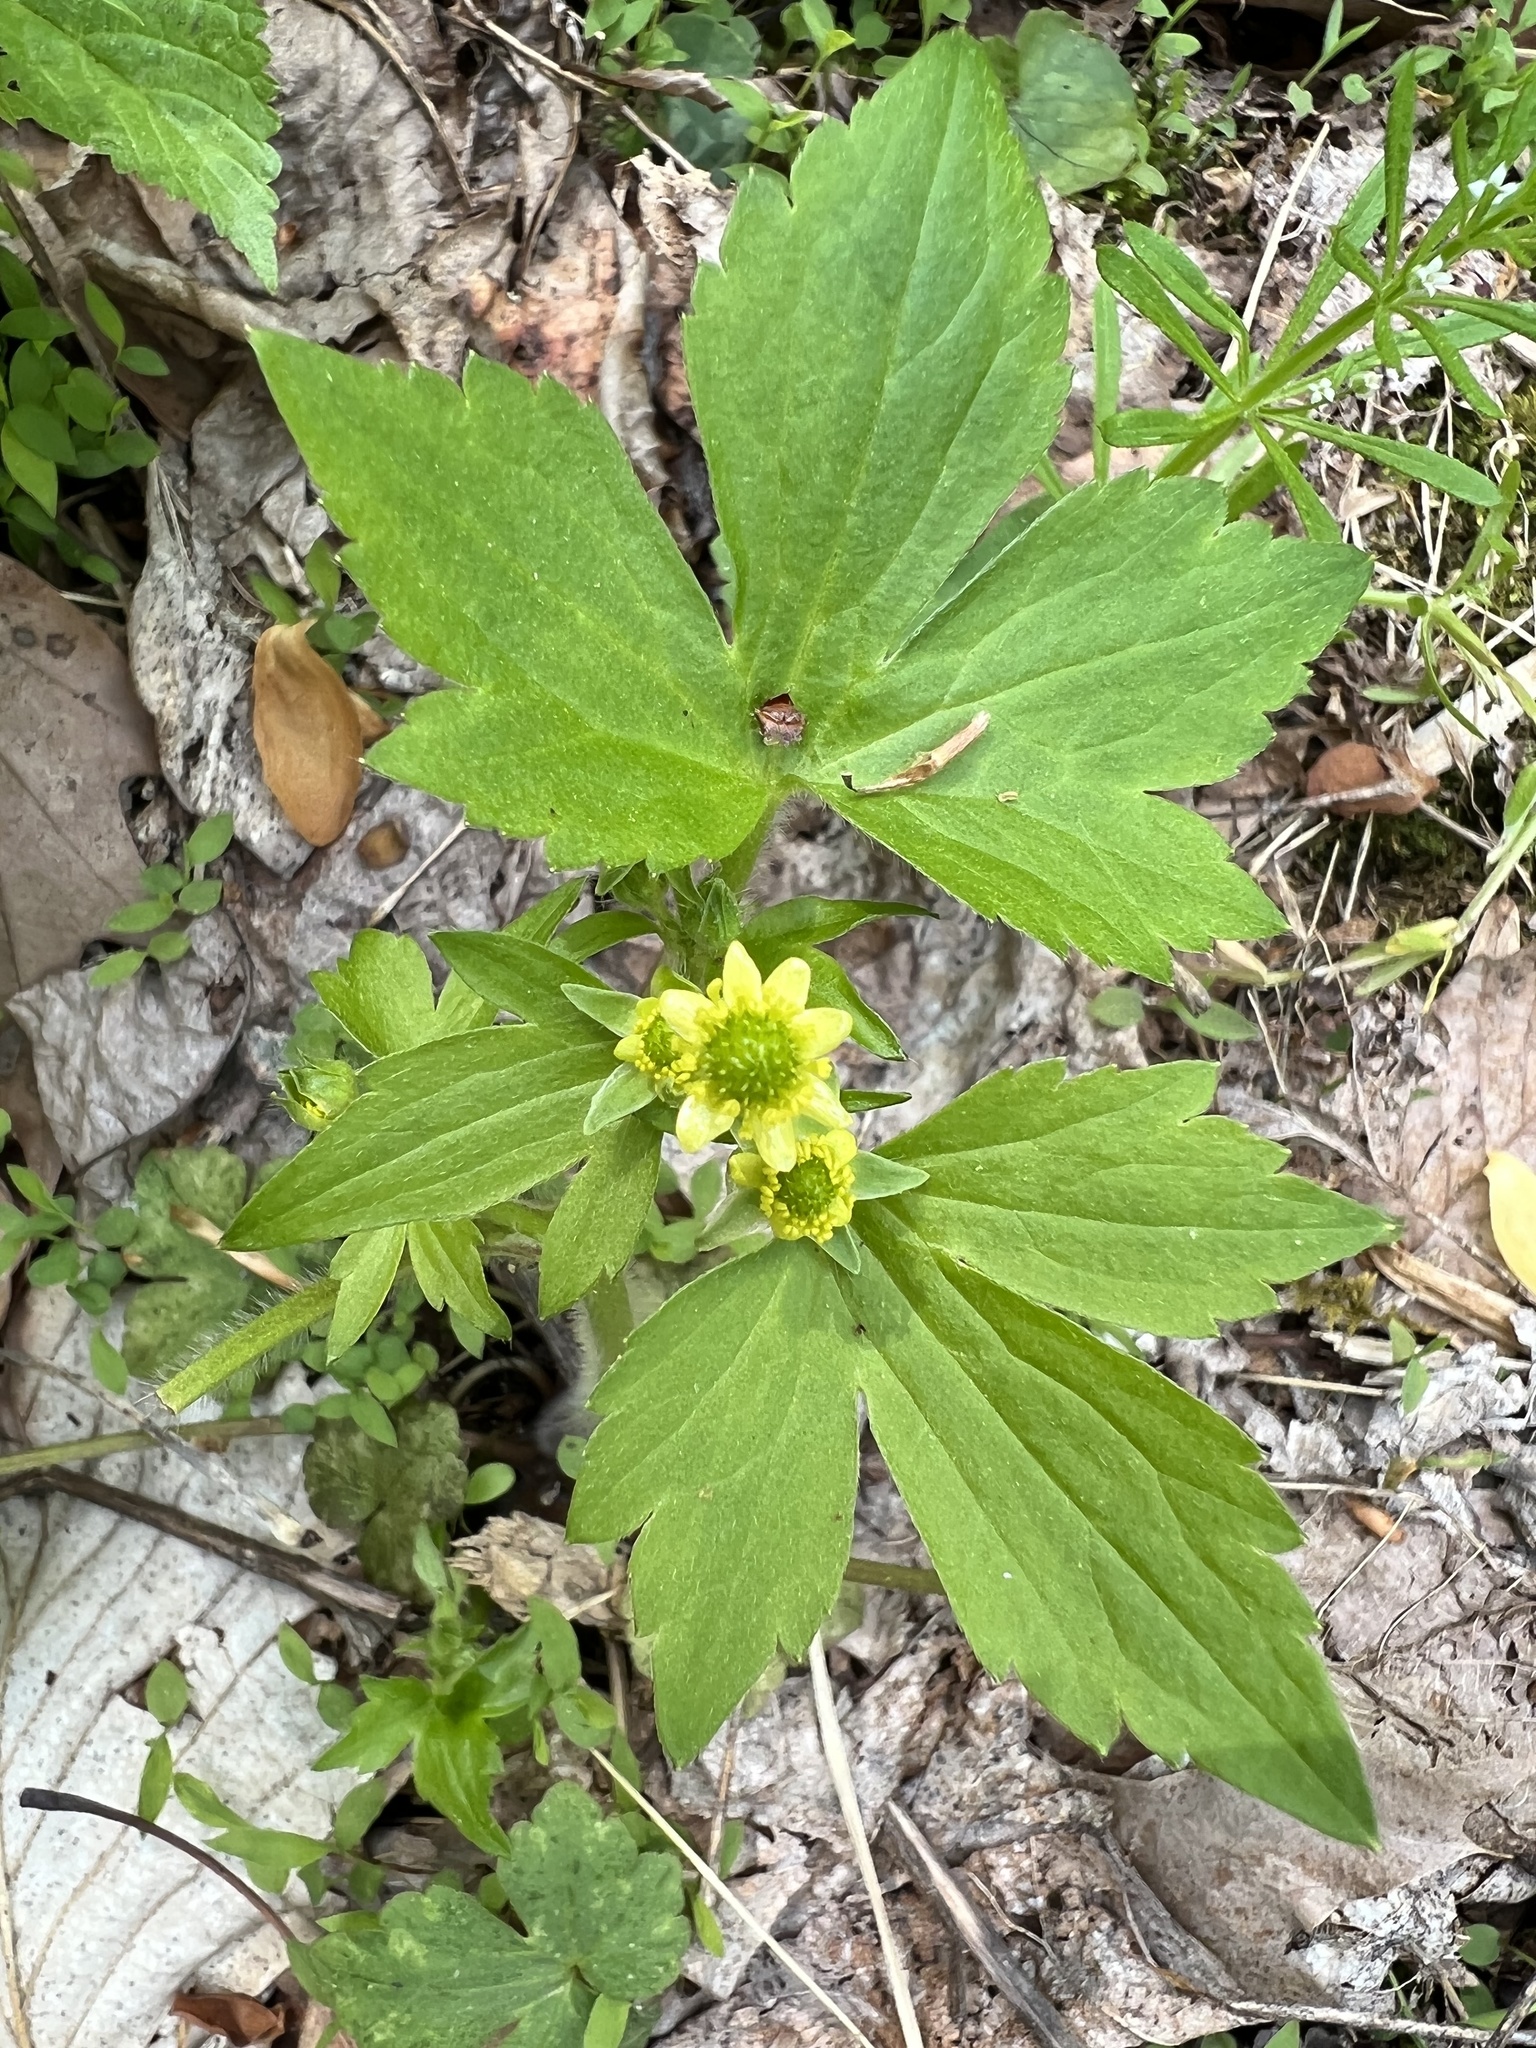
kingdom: Plantae
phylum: Tracheophyta
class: Magnoliopsida
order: Ranunculales
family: Ranunculaceae
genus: Ranunculus
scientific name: Ranunculus recurvatus
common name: Blisterwort
